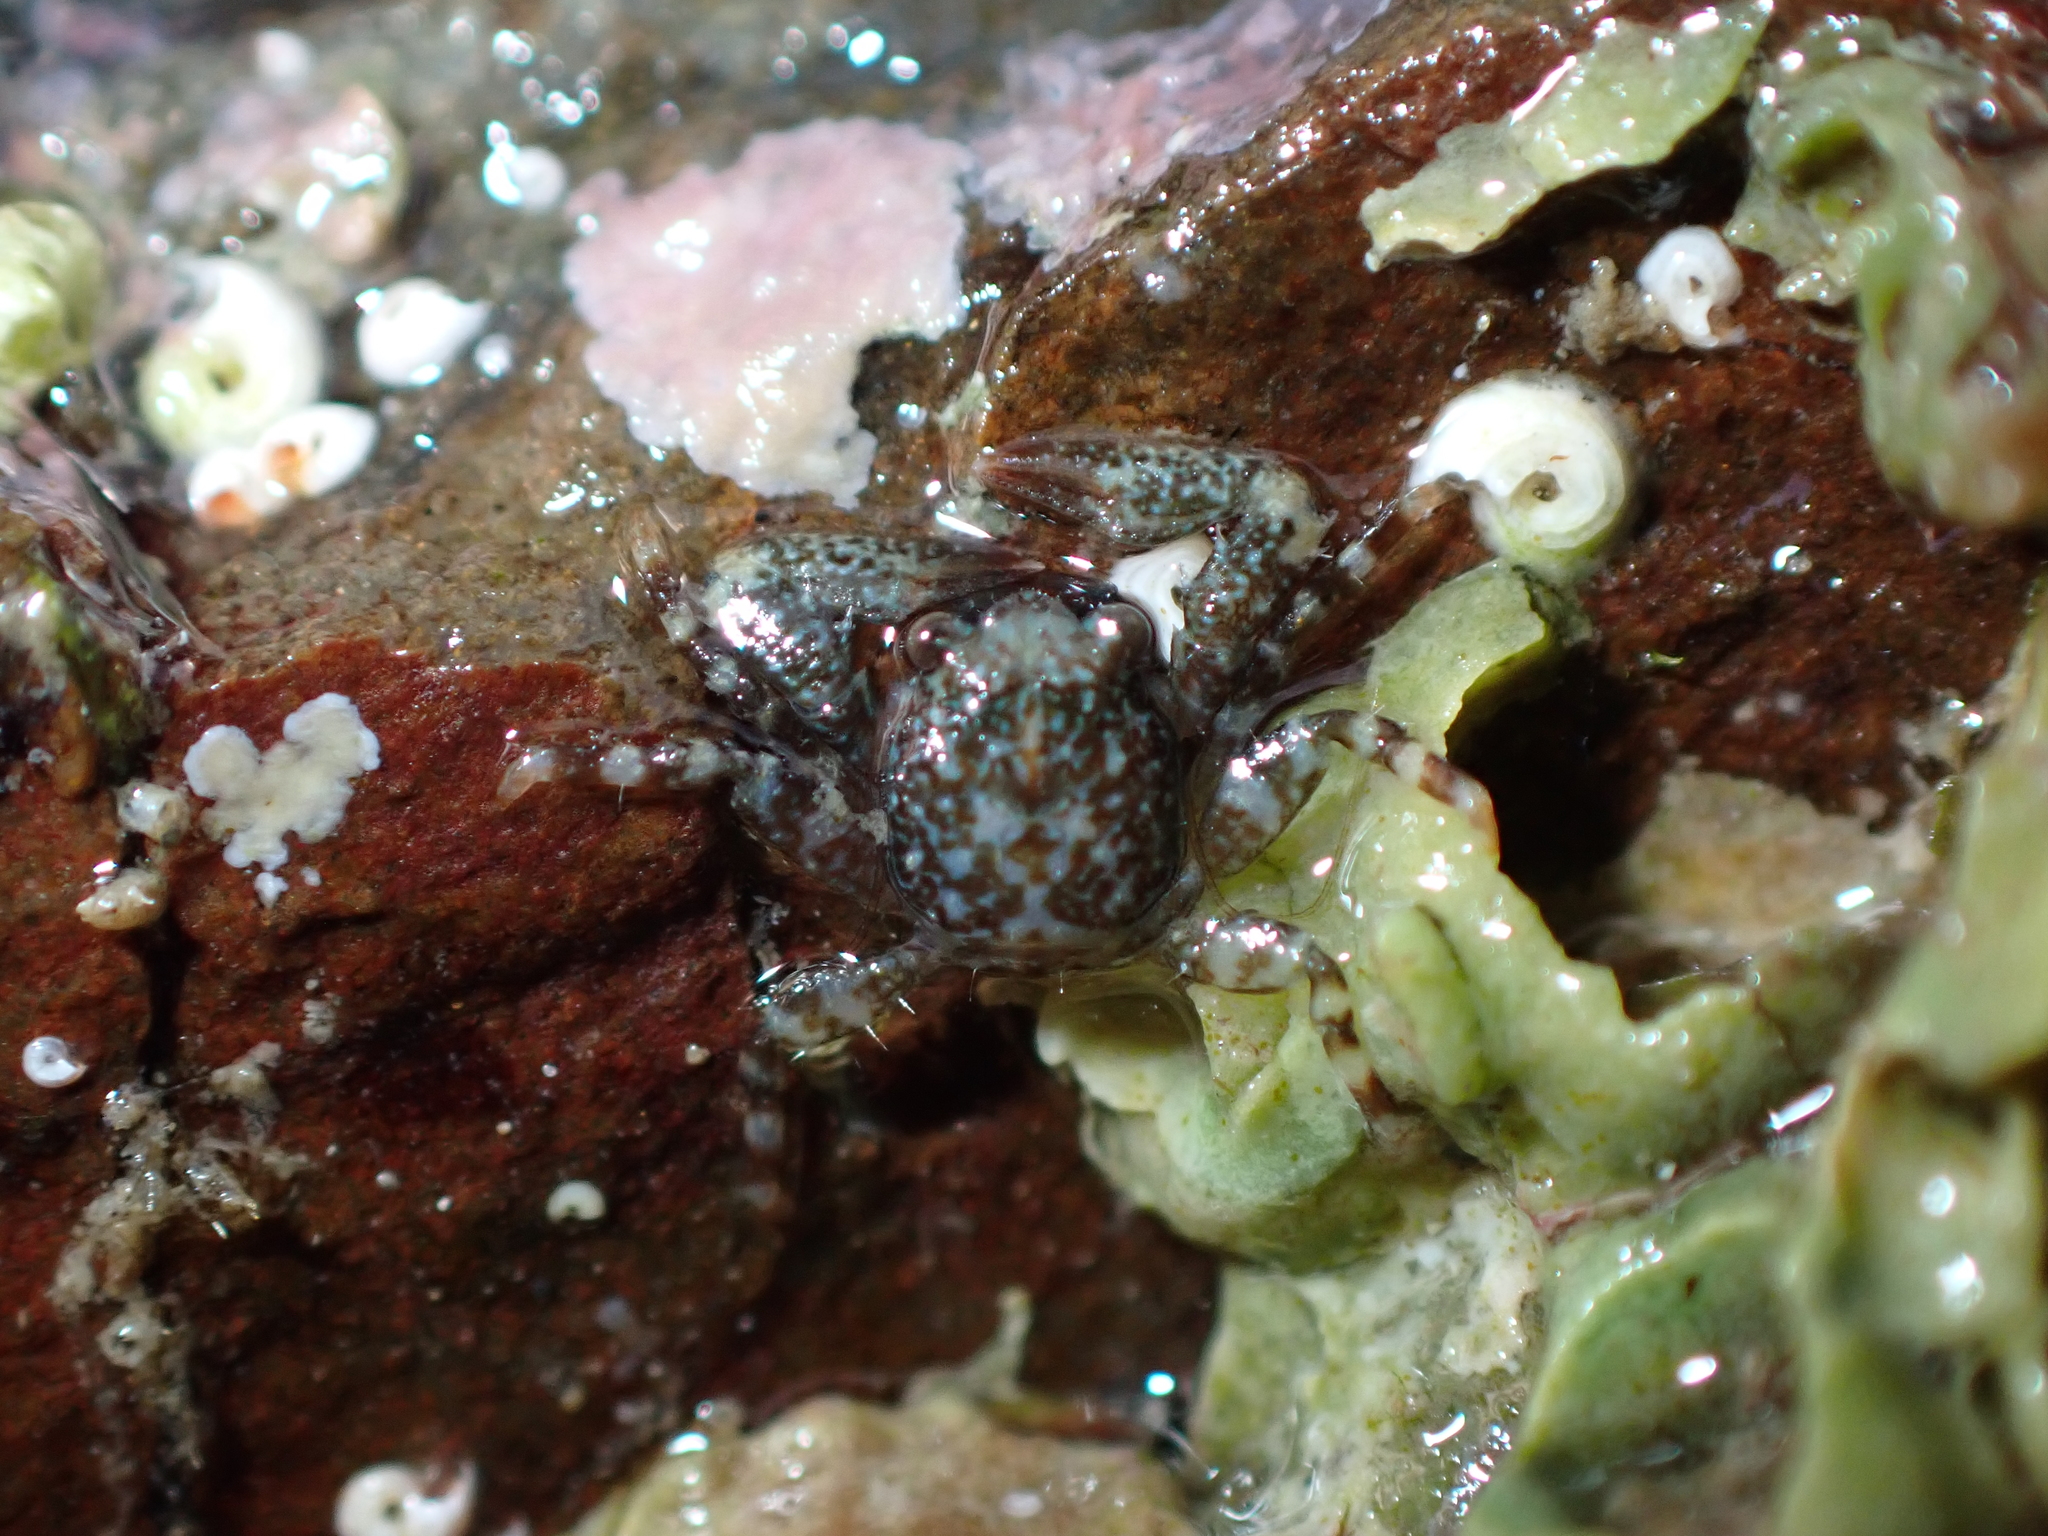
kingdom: Animalia
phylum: Arthropoda
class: Malacostraca
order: Decapoda
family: Porcellanidae
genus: Petrocheles
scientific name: Petrocheles spinosus
